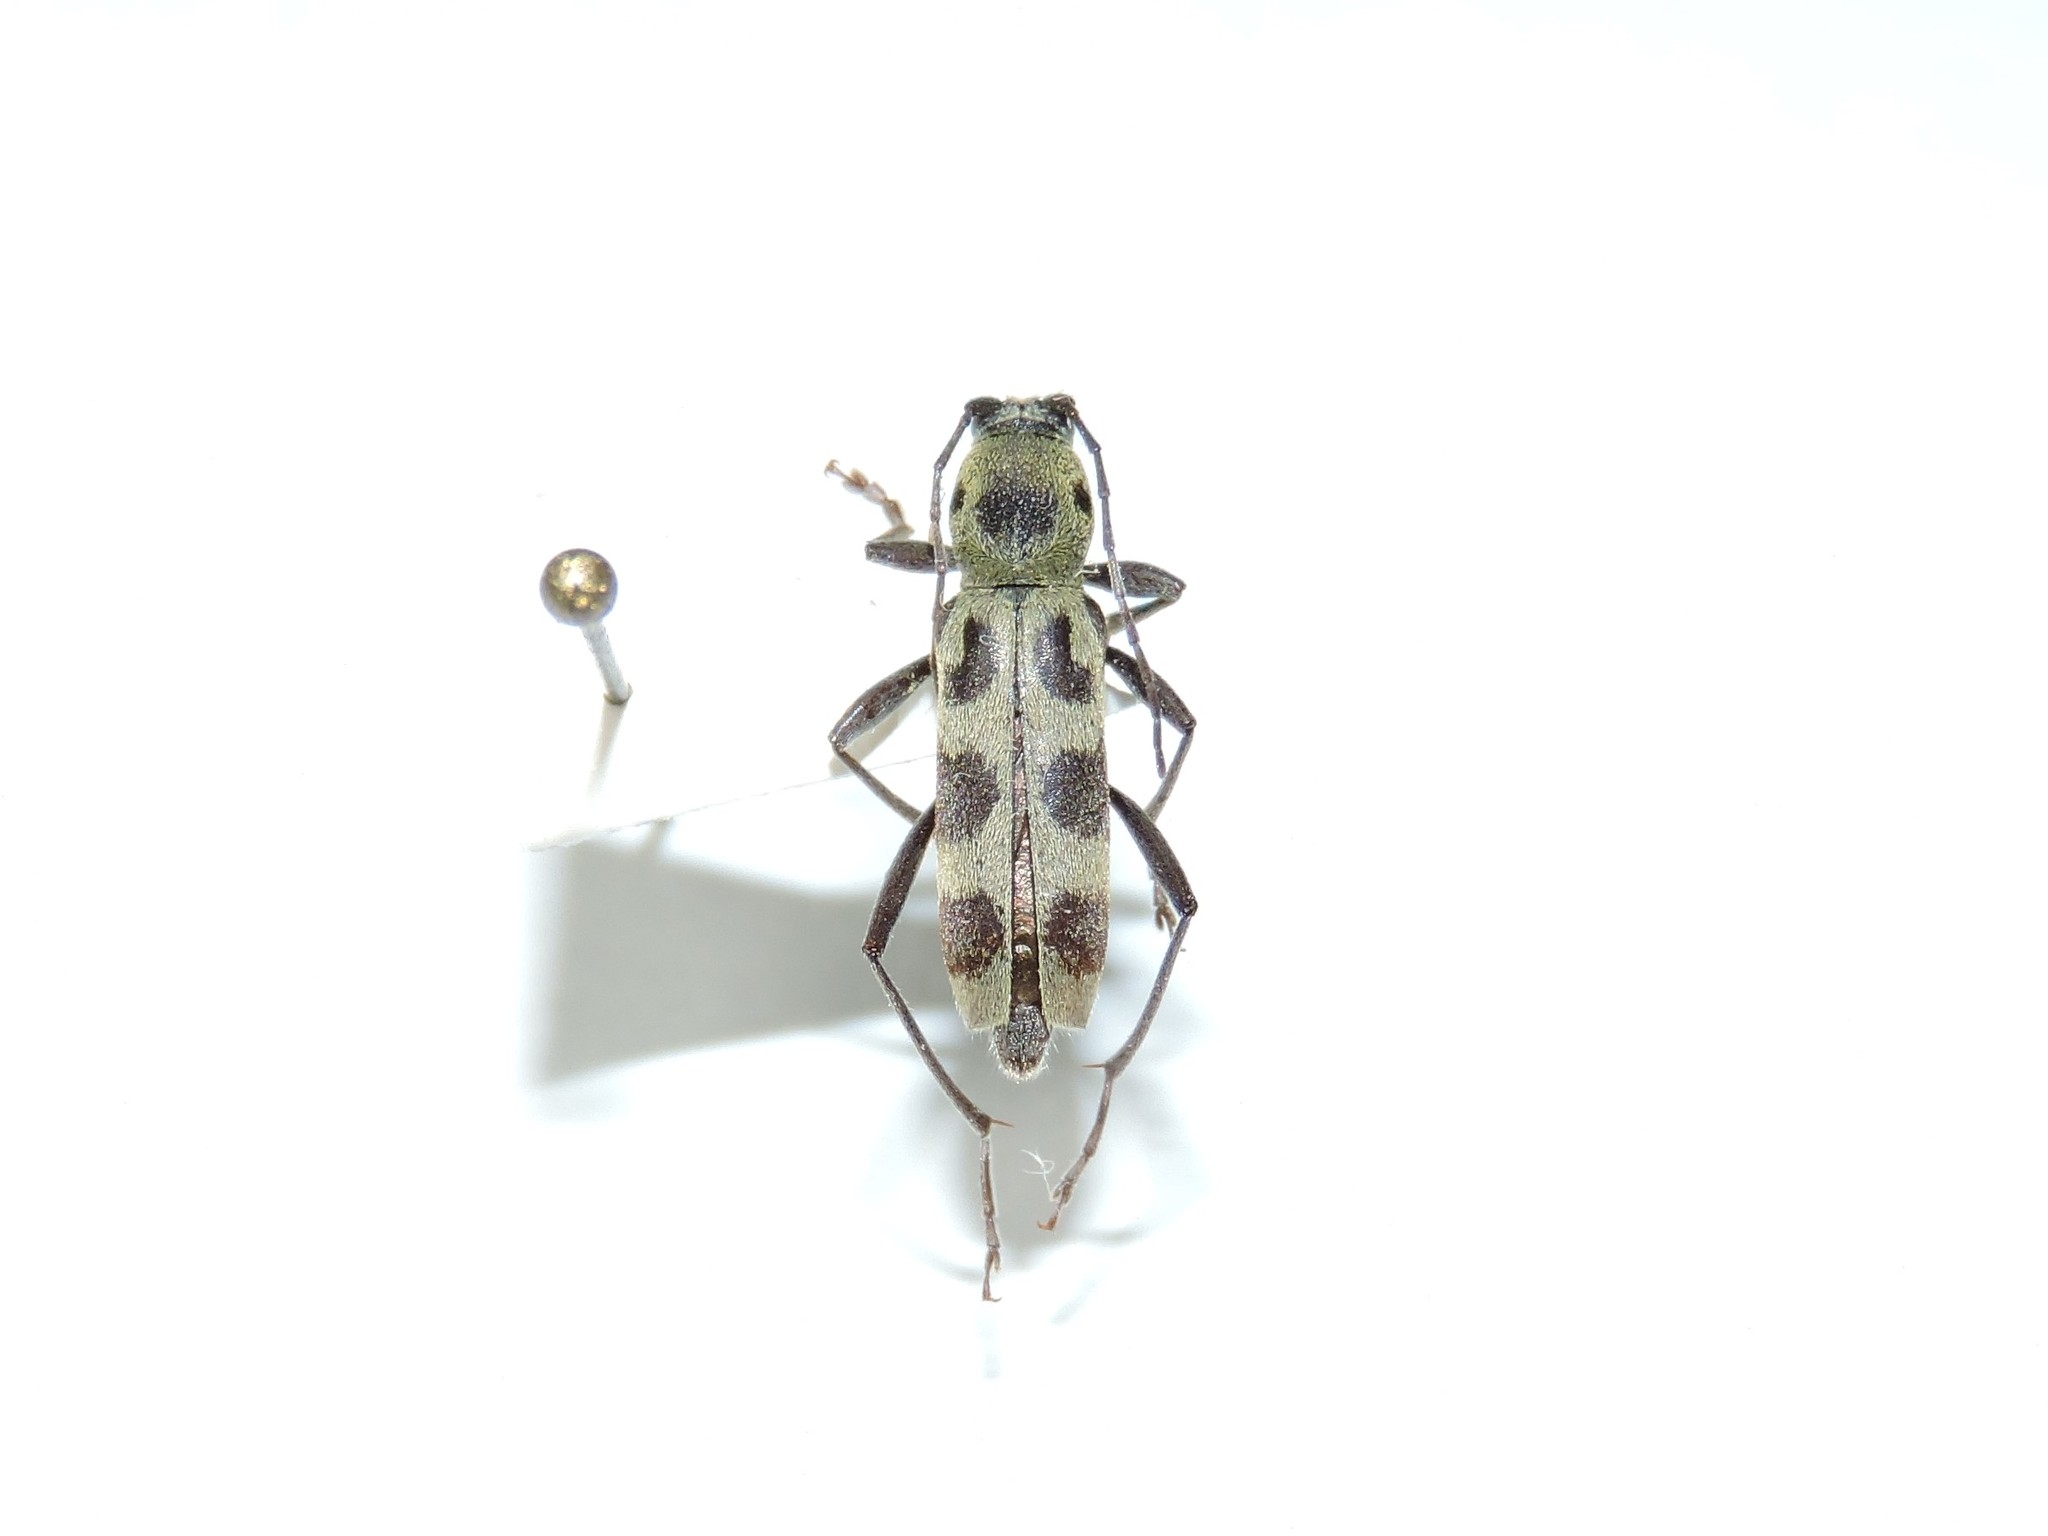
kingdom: Animalia
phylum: Arthropoda
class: Insecta
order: Coleoptera
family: Cerambycidae
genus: Chlorophorus
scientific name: Chlorophorus herbstii
